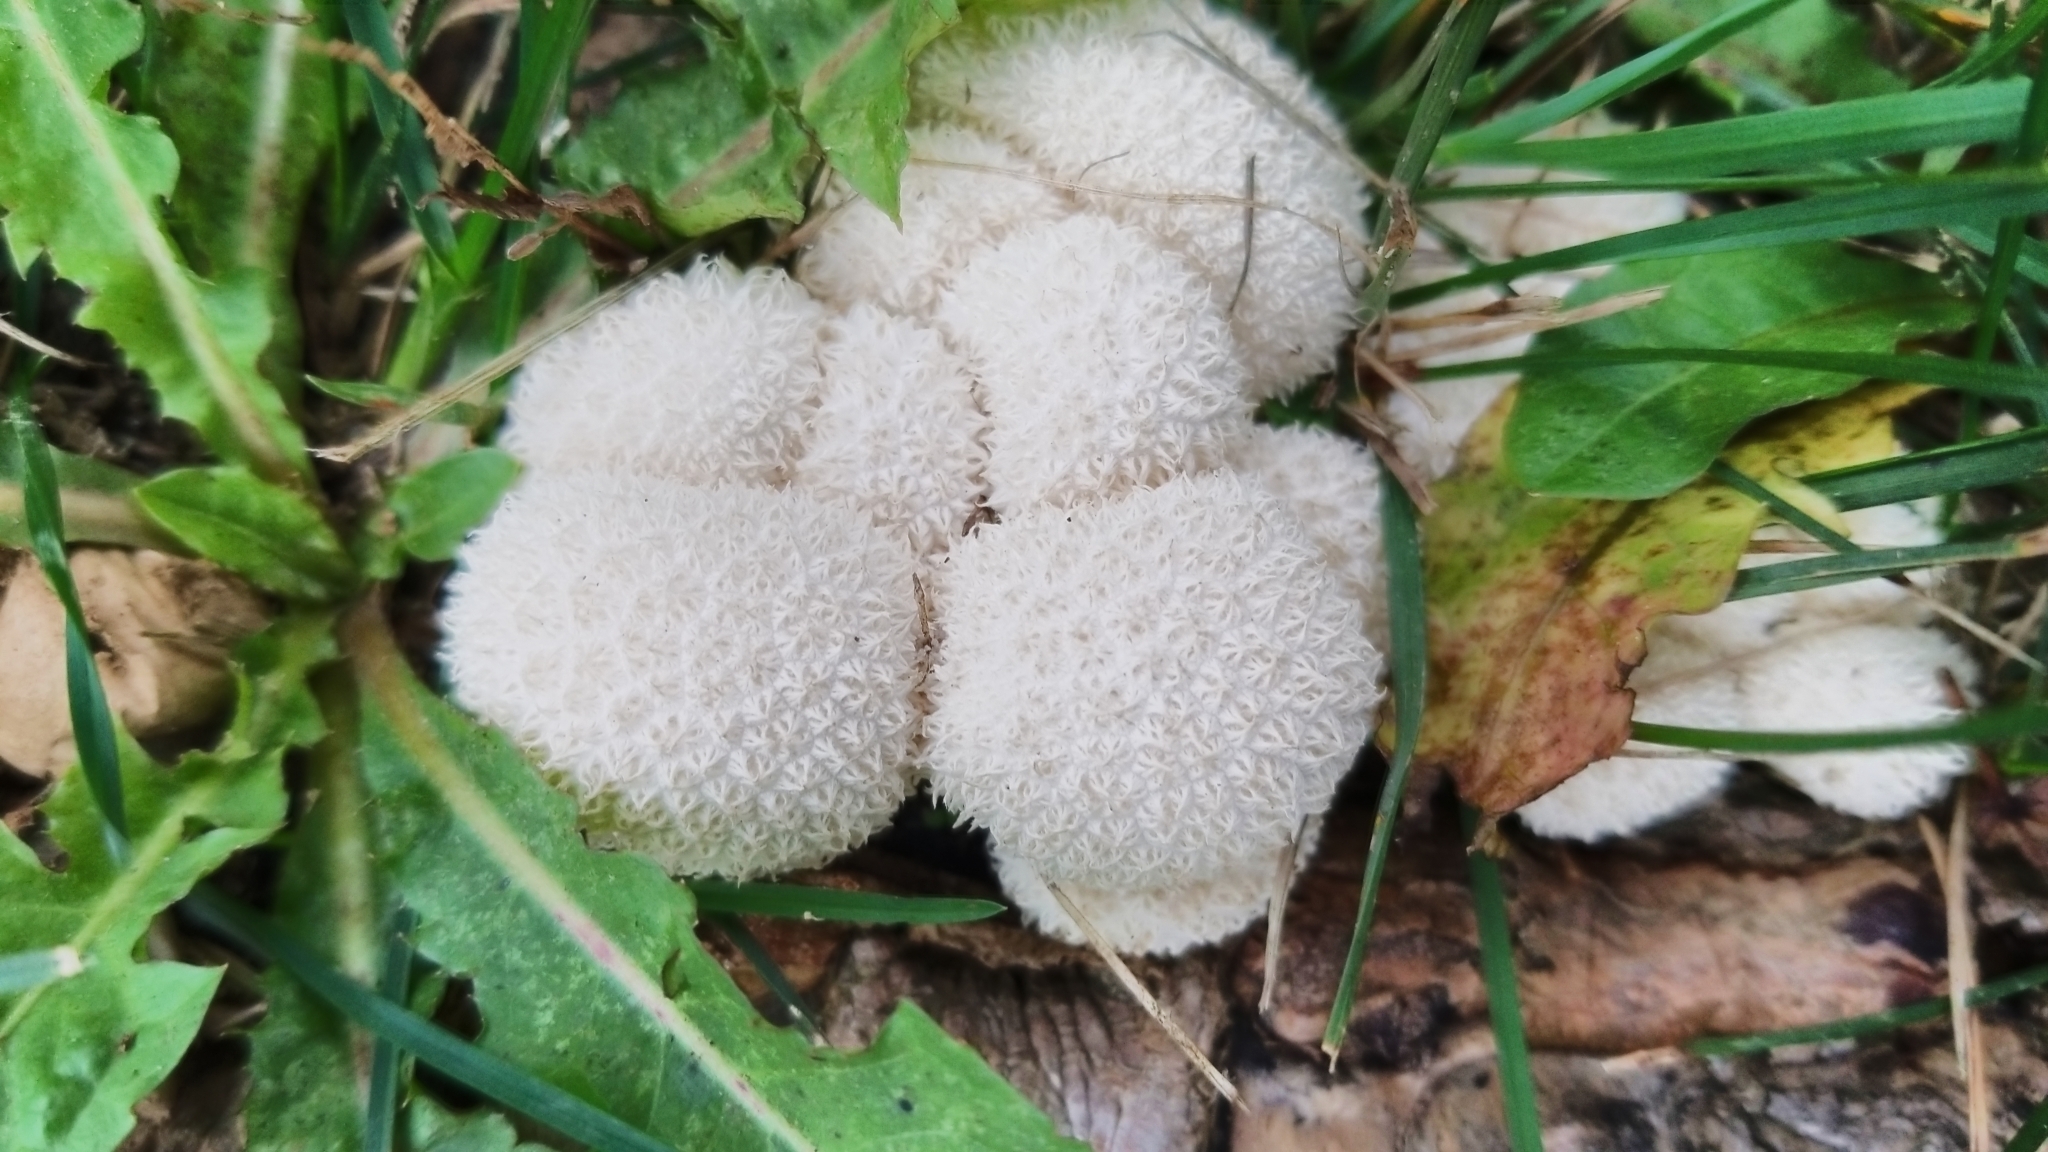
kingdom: Fungi
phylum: Basidiomycota
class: Agaricomycetes
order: Agaricales
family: Lycoperdaceae
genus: Lycoperdon
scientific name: Lycoperdon curtisii
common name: Curtis's puffball
